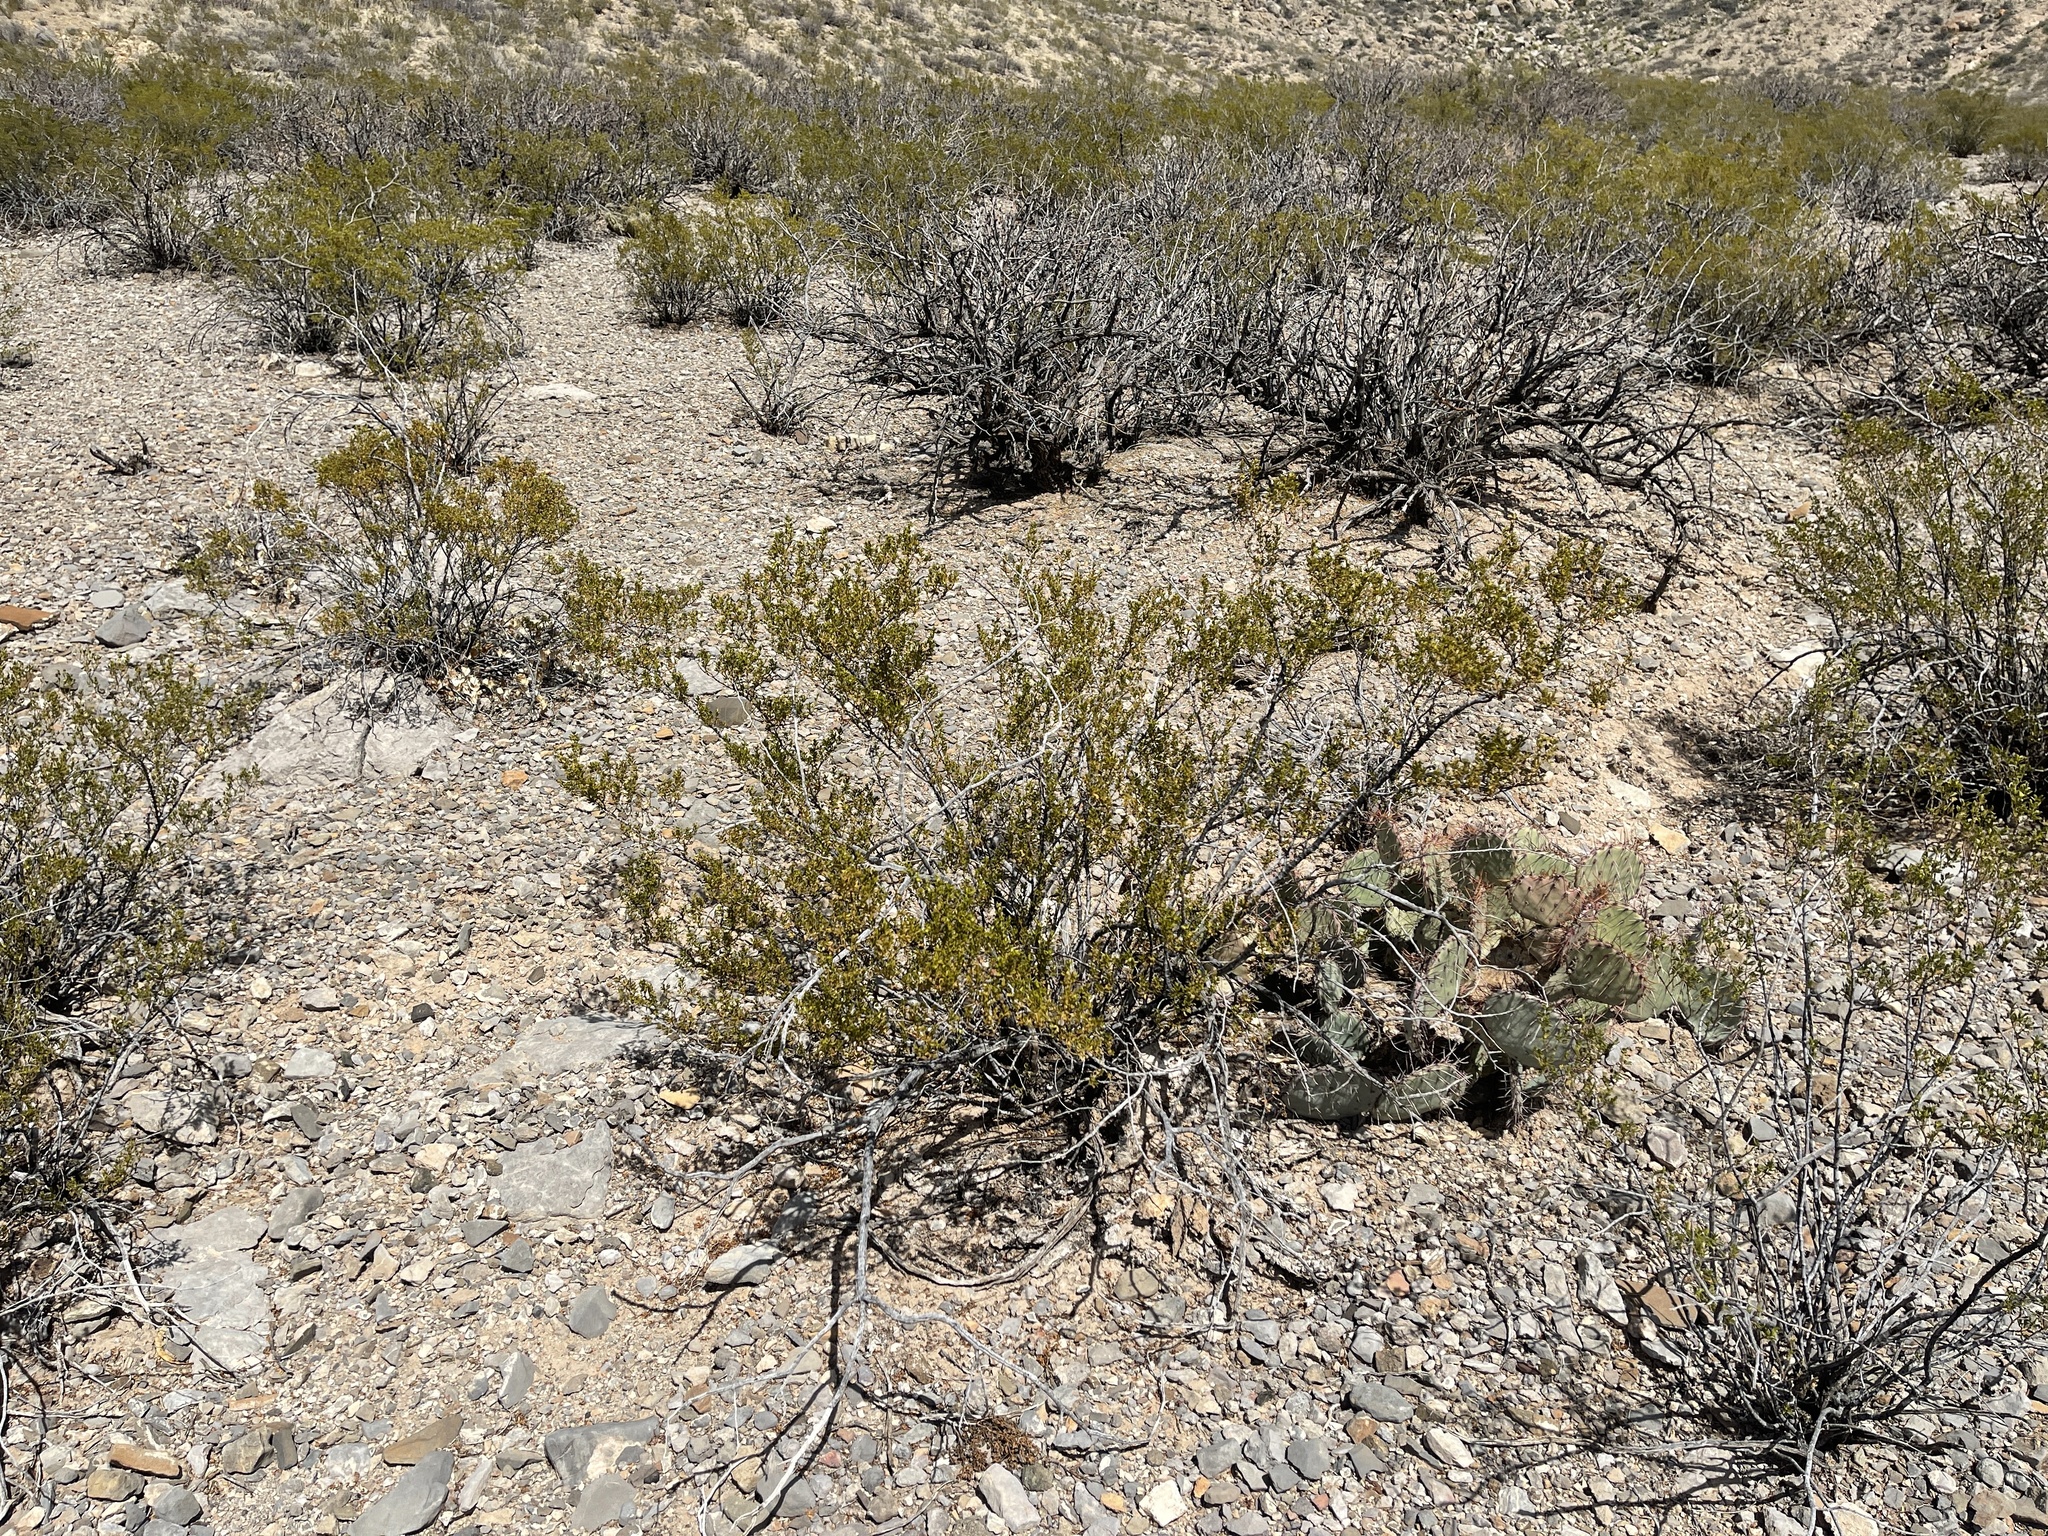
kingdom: Plantae
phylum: Tracheophyta
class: Magnoliopsida
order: Zygophyllales
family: Zygophyllaceae
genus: Larrea
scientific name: Larrea tridentata
